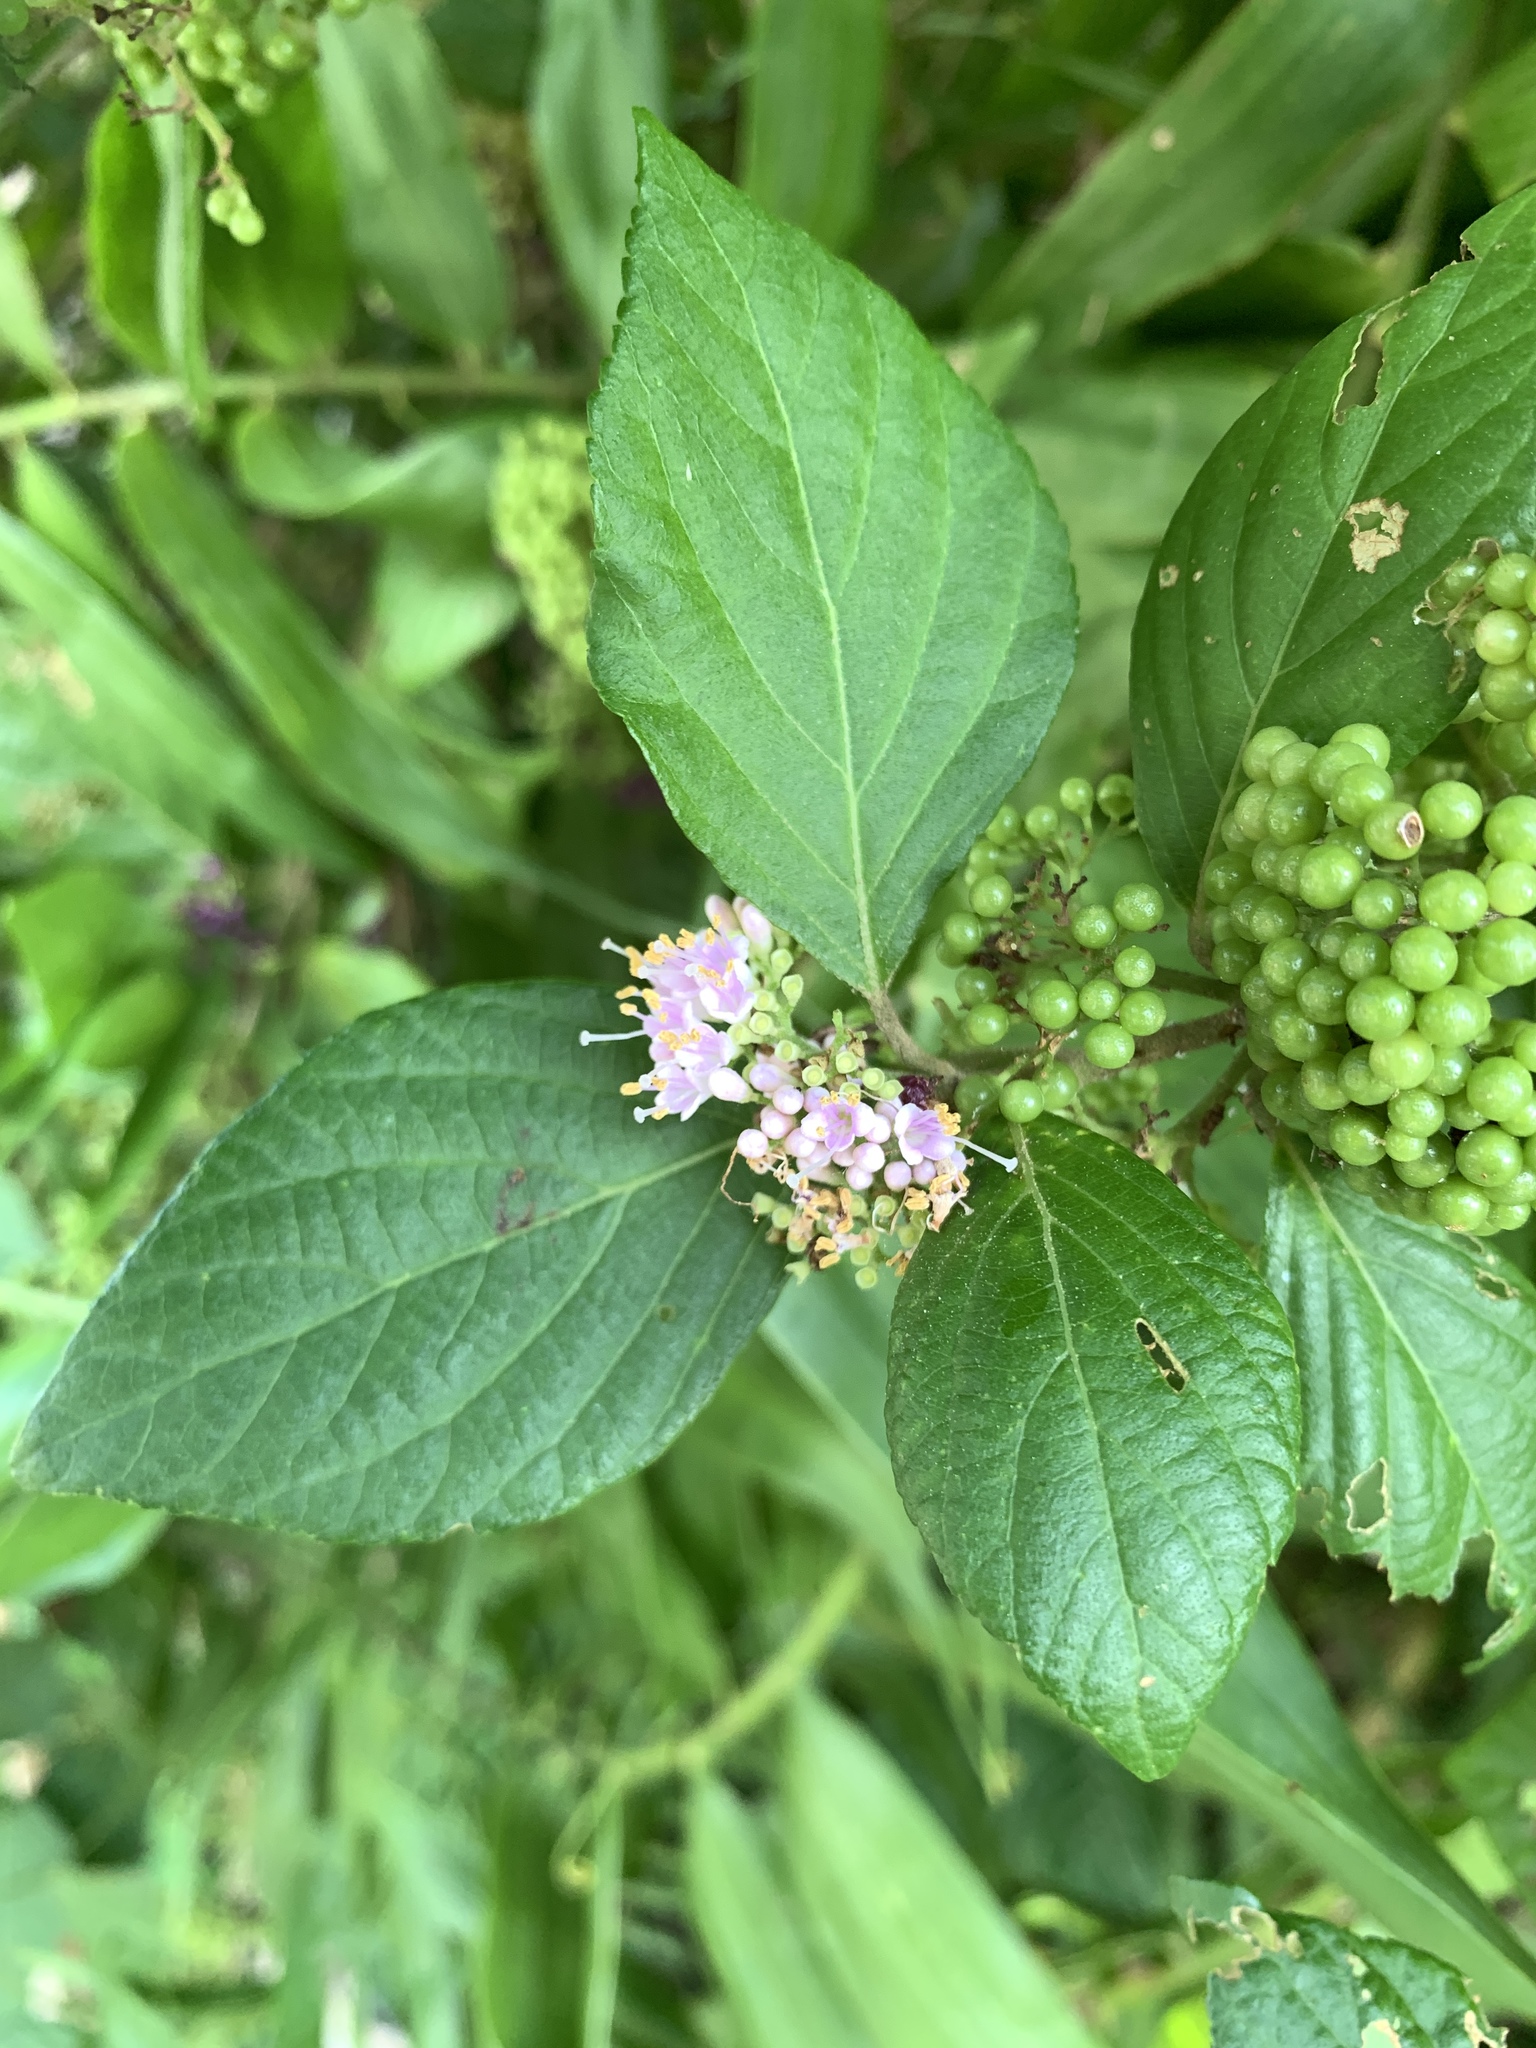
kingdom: Plantae
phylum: Tracheophyta
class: Magnoliopsida
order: Lamiales
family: Lamiaceae
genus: Callicarpa
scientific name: Callicarpa japonica
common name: Japanese beauty-berry
